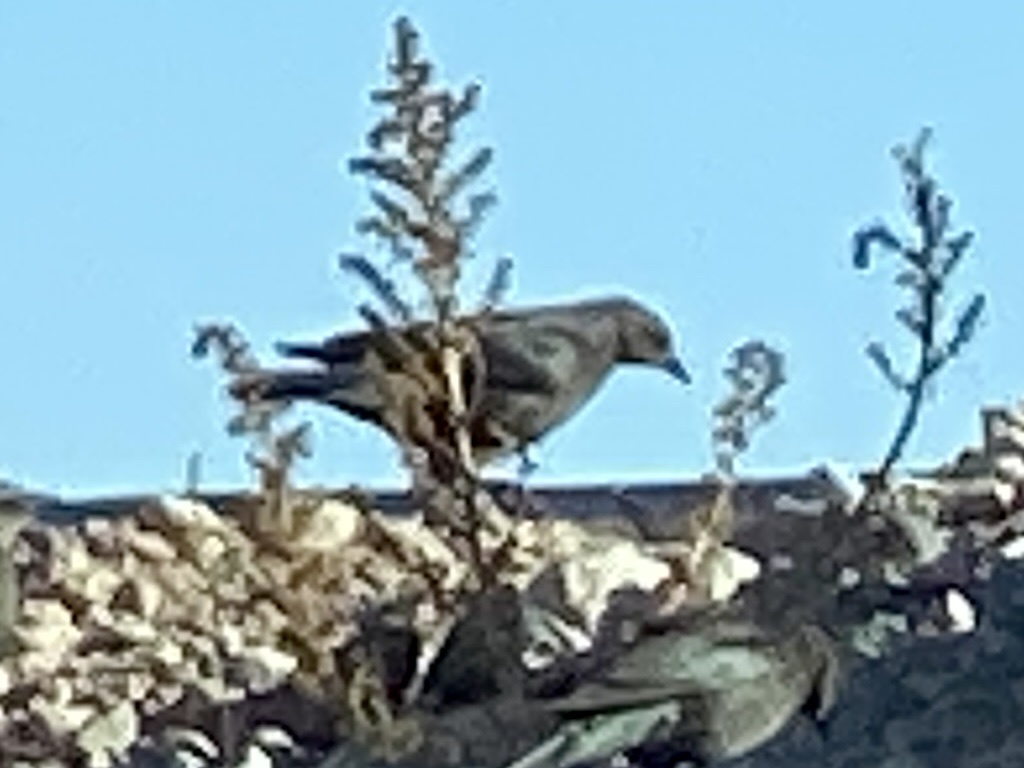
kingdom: Animalia
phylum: Chordata
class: Aves
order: Passeriformes
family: Icteridae
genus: Molothrus
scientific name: Molothrus ater
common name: Brown-headed cowbird
